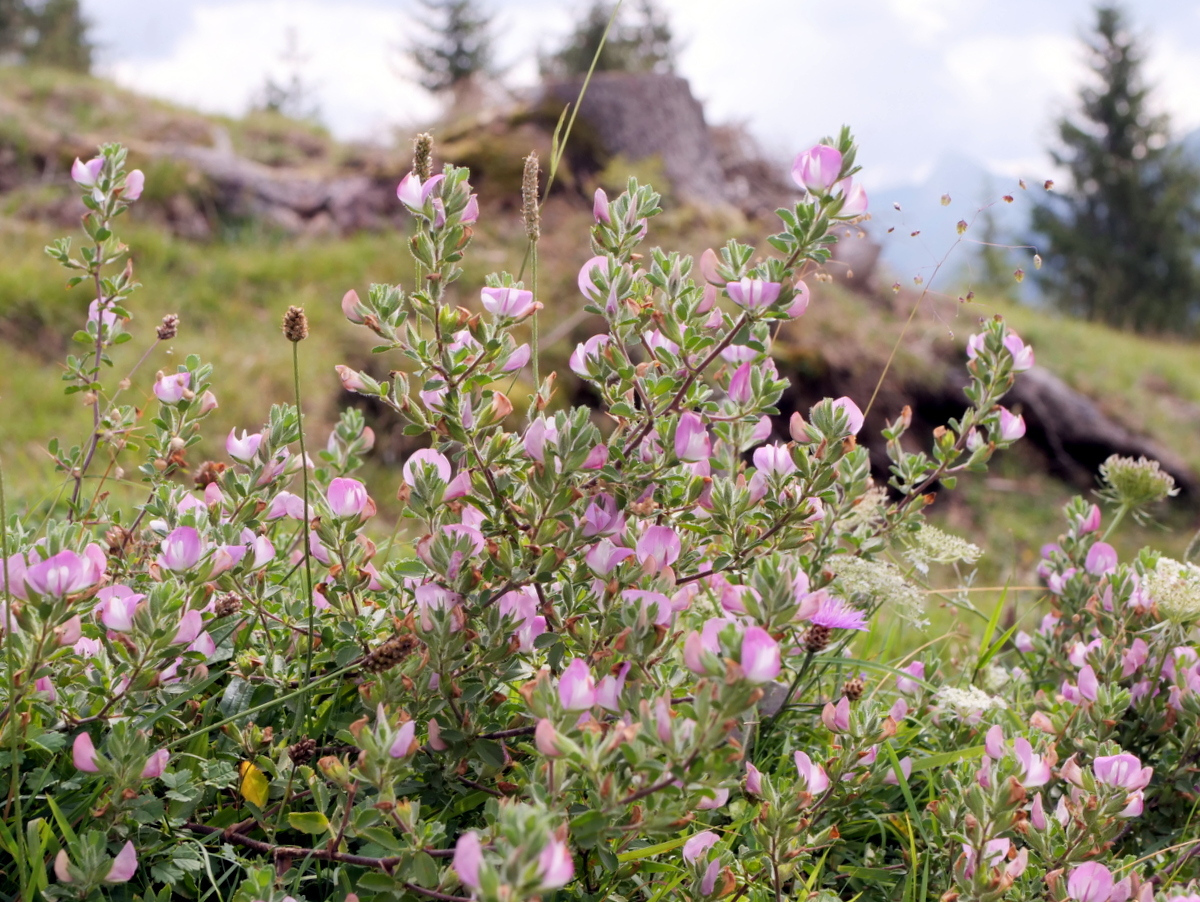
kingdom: Plantae
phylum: Tracheophyta
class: Magnoliopsida
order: Fabales
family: Fabaceae
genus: Ononis
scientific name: Ononis spinosa
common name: Spiny restharrow
